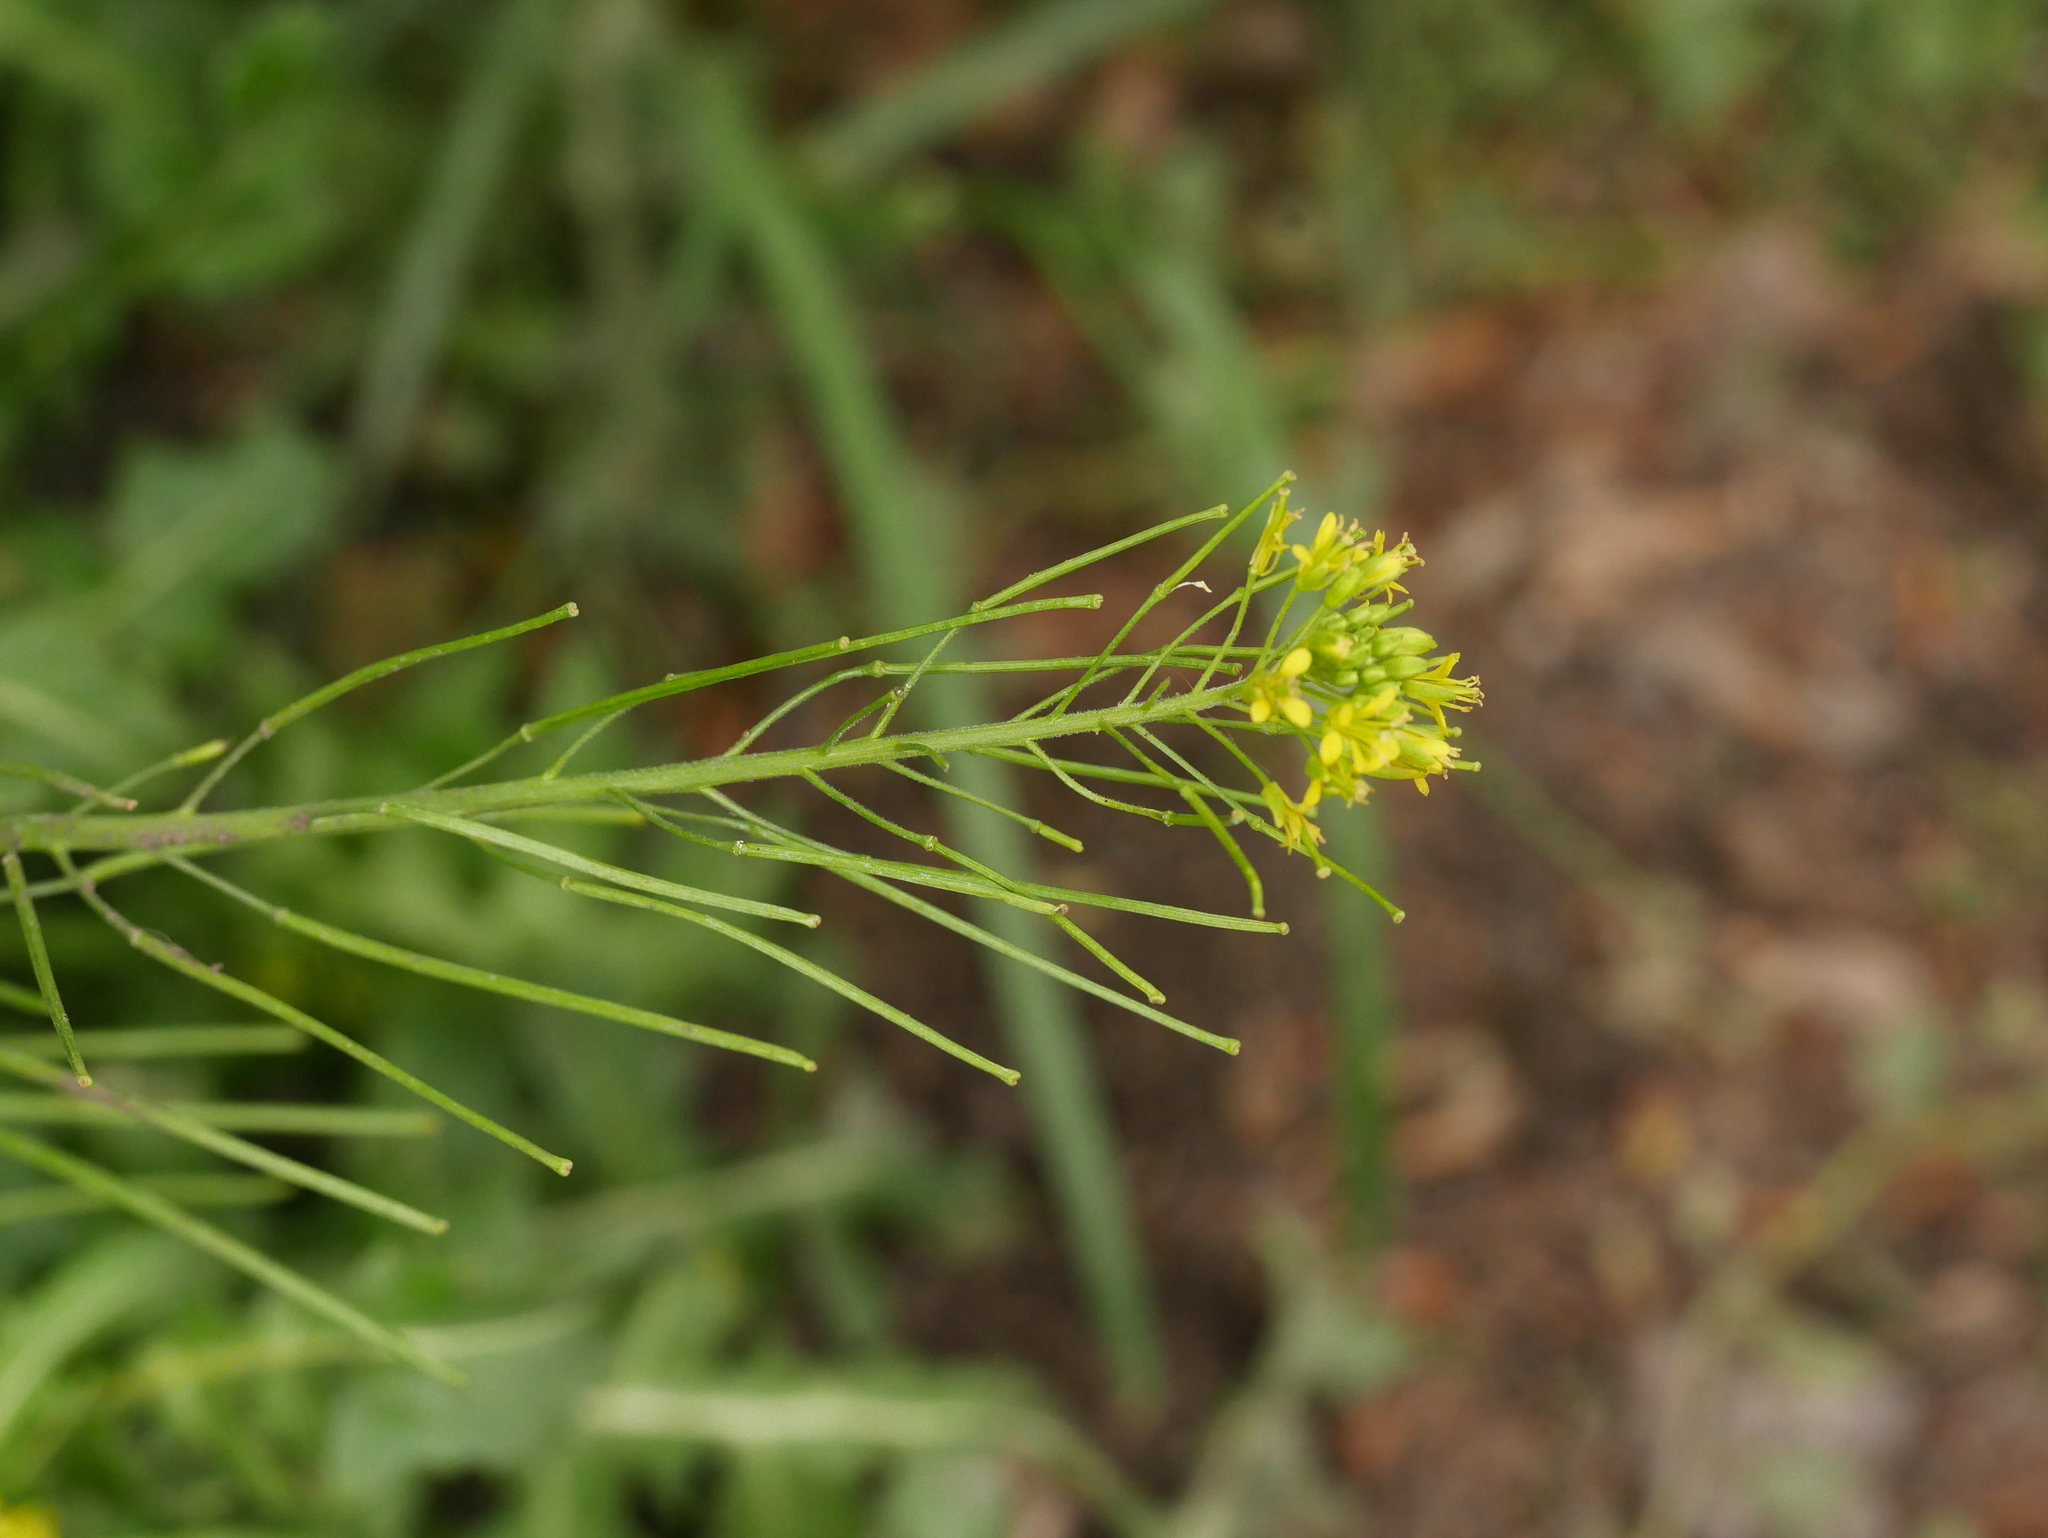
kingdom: Plantae
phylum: Tracheophyta
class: Magnoliopsida
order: Brassicales
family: Brassicaceae
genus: Sisymbrium
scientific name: Sisymbrium loeselii
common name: False london-rocket
